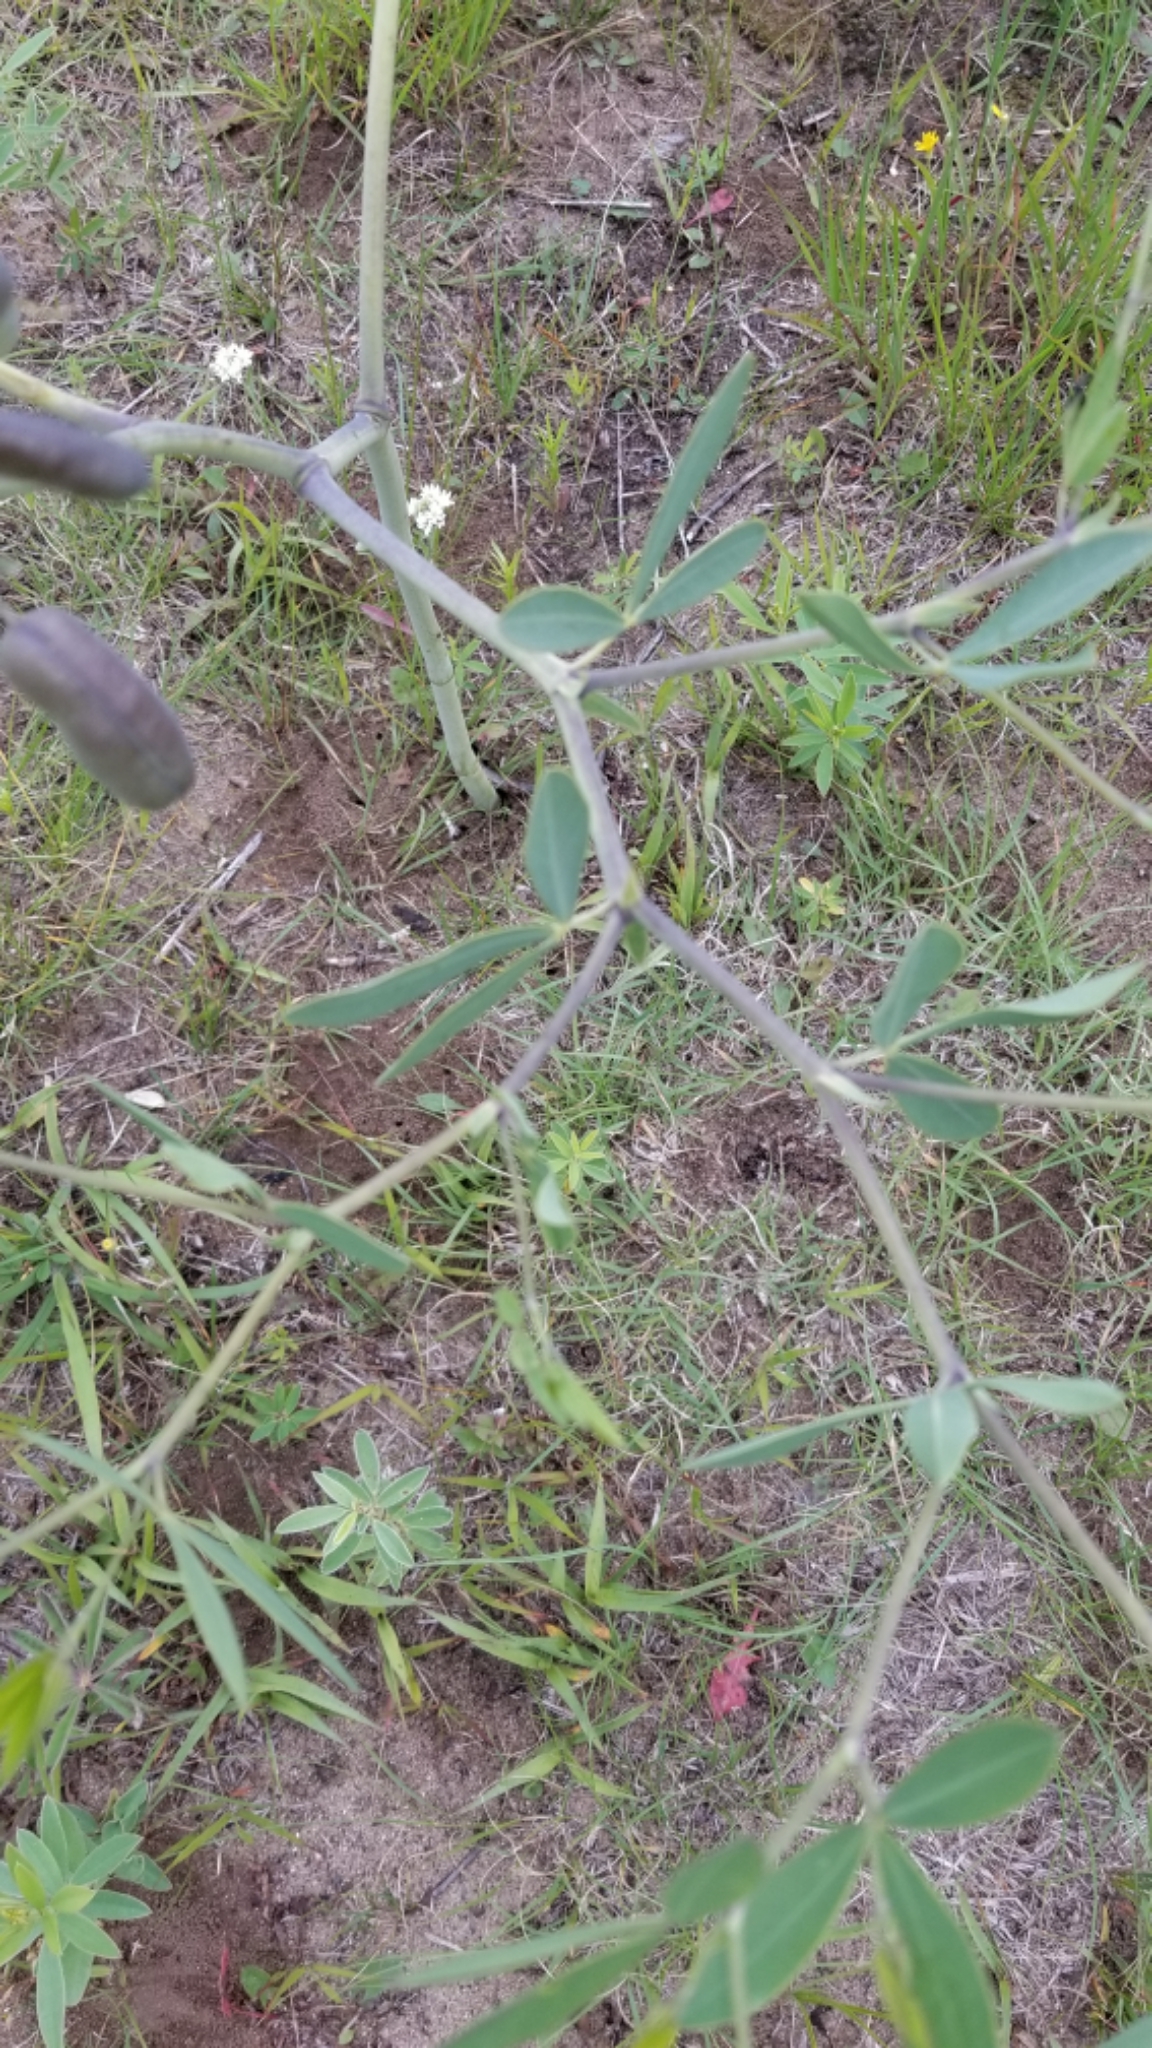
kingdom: Plantae
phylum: Tracheophyta
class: Magnoliopsida
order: Fabales
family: Fabaceae
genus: Baptisia
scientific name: Baptisia alba
